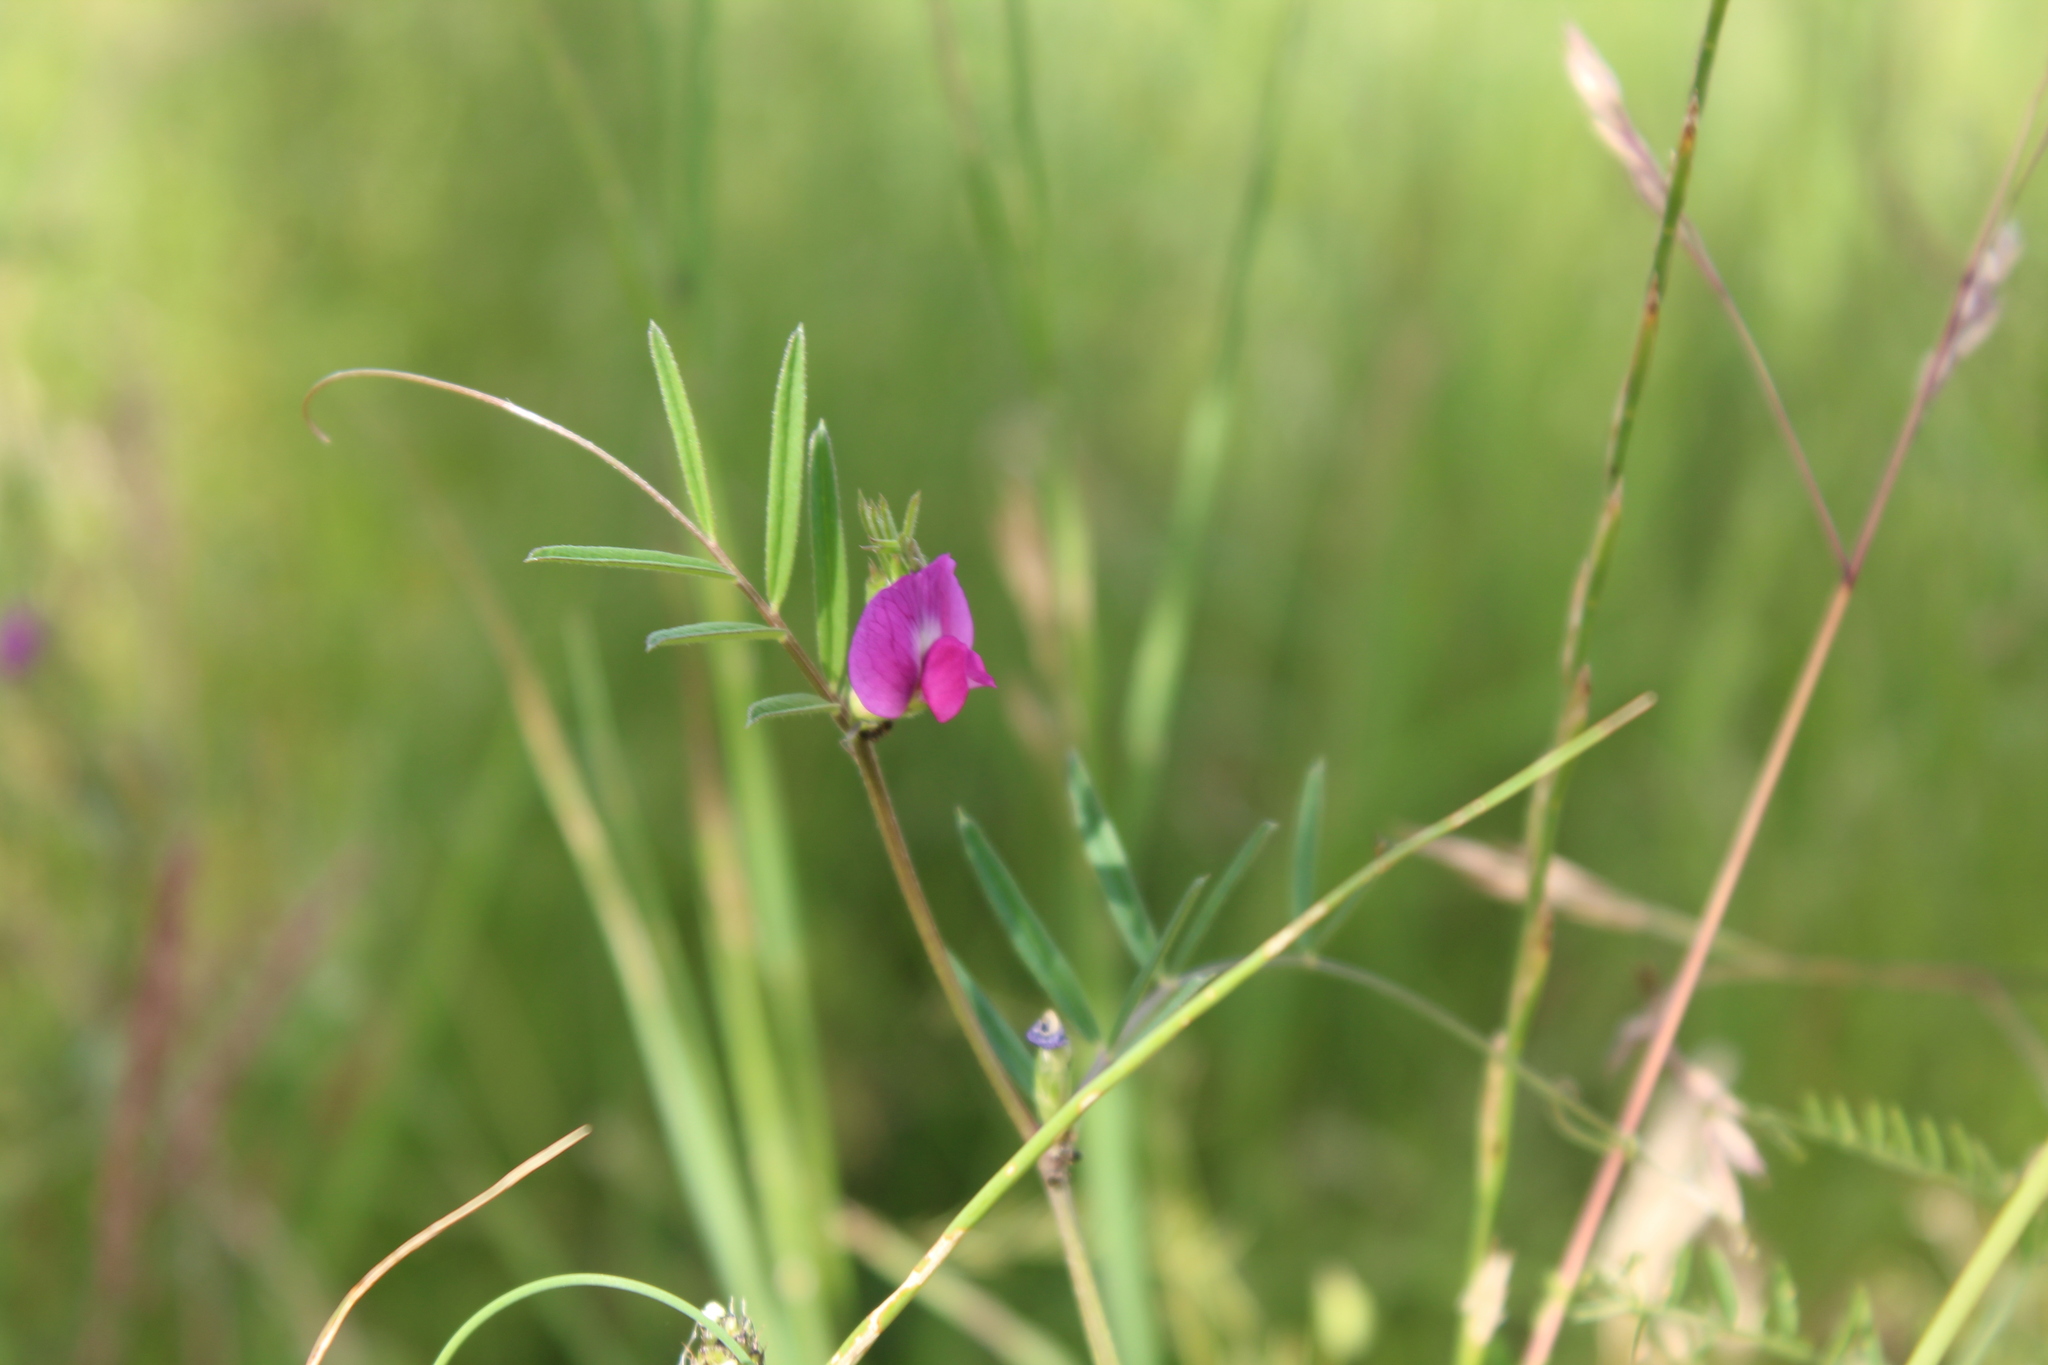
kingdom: Plantae
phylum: Tracheophyta
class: Magnoliopsida
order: Fabales
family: Fabaceae
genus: Vicia
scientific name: Vicia sativa
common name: Garden vetch
